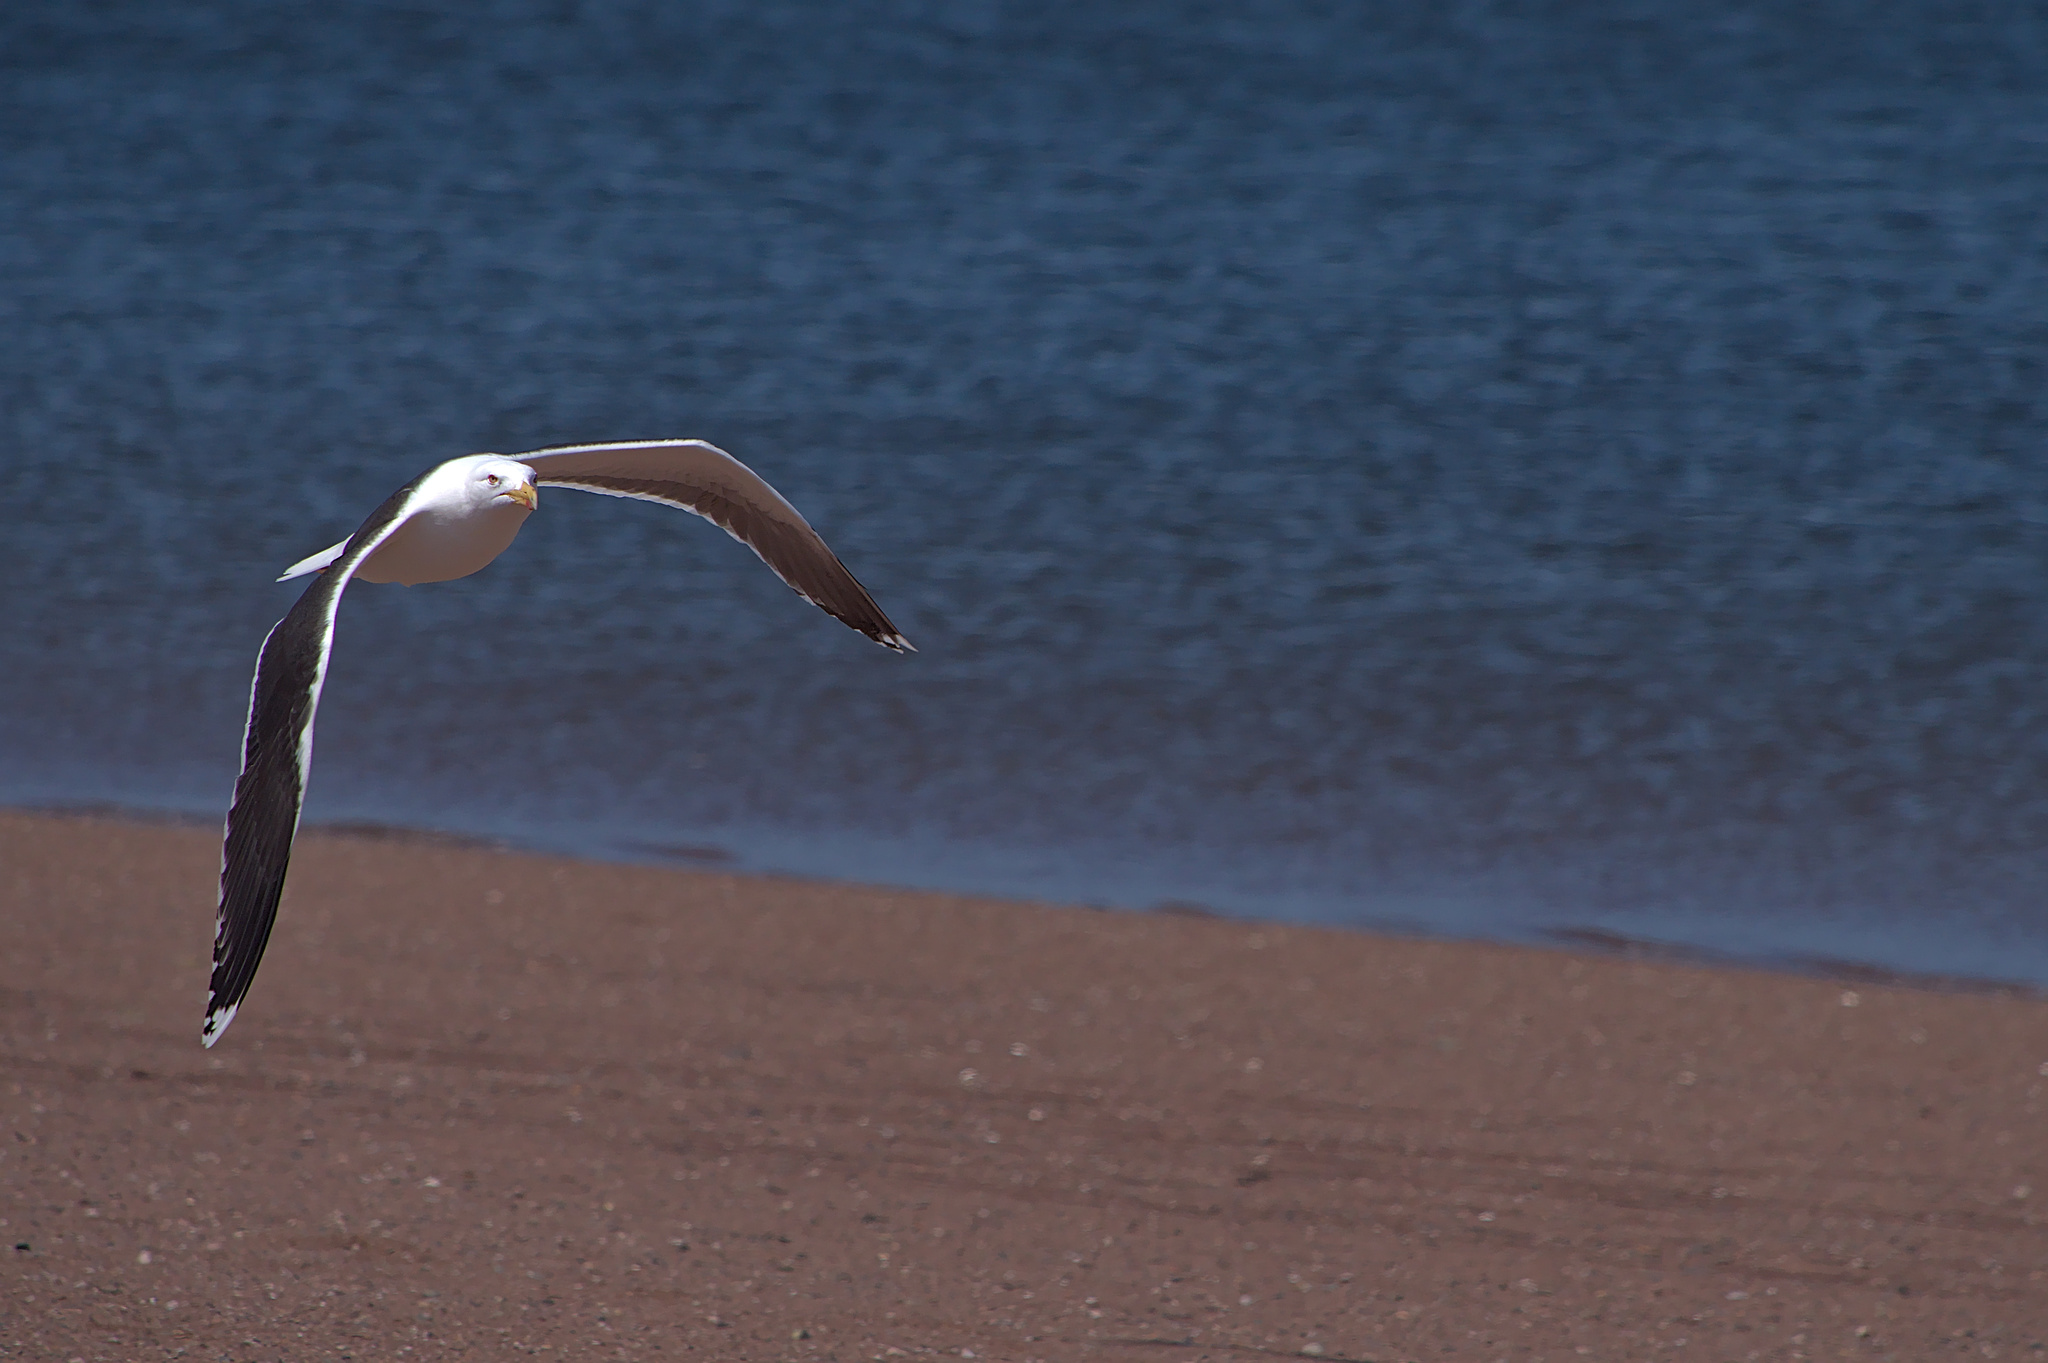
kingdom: Animalia
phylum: Chordata
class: Aves
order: Charadriiformes
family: Laridae
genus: Larus
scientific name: Larus marinus
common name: Great black-backed gull
